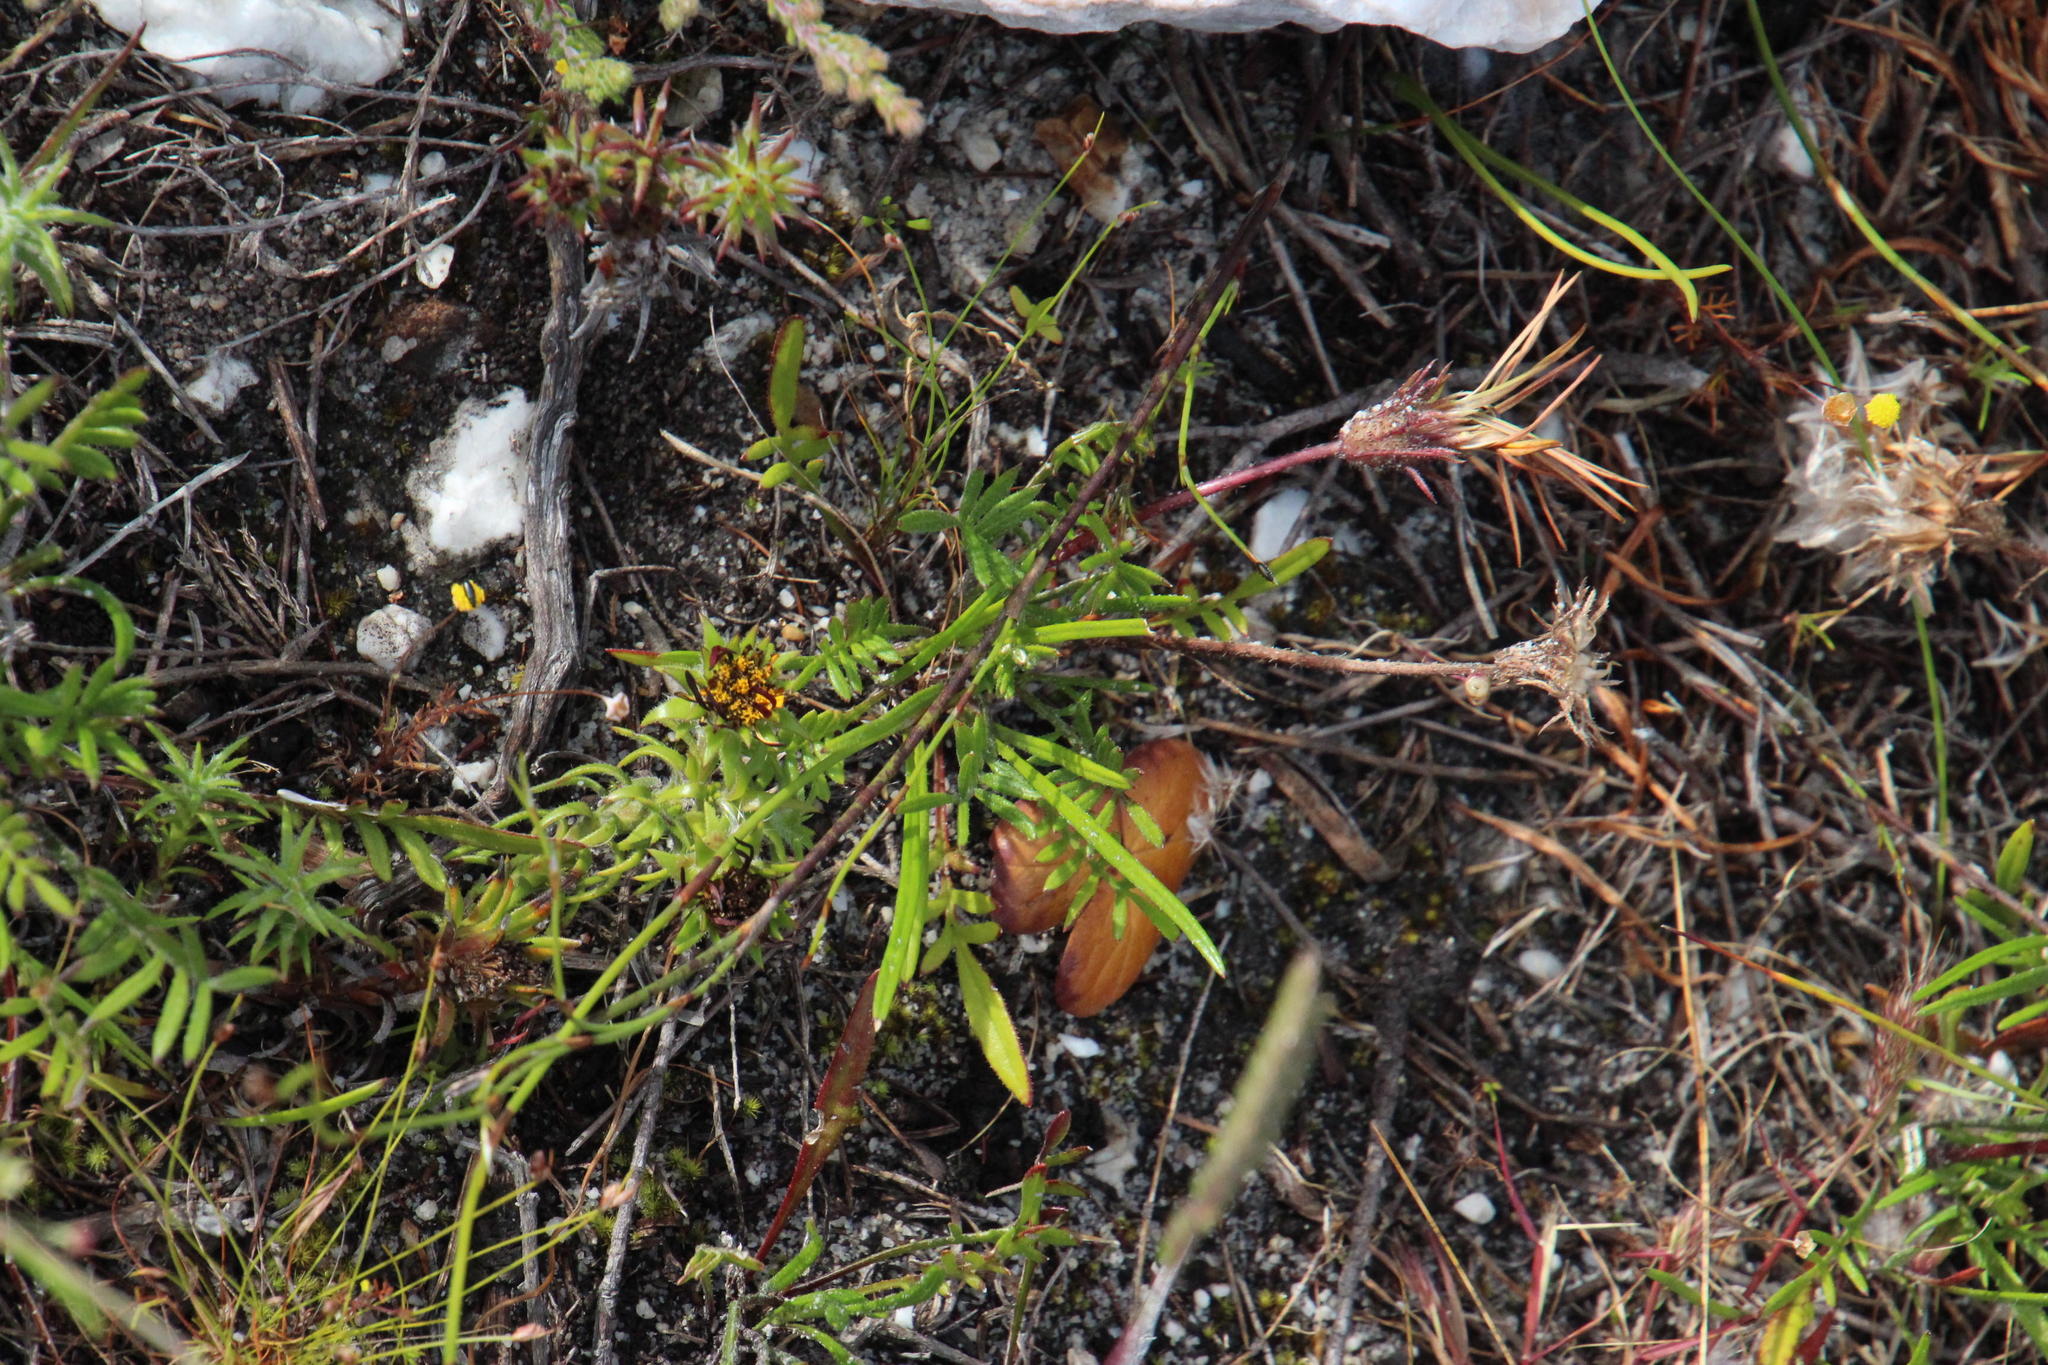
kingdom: Plantae
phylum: Tracheophyta
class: Magnoliopsida
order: Asterales
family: Asteraceae
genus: Gazania
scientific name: Gazania pectinata
